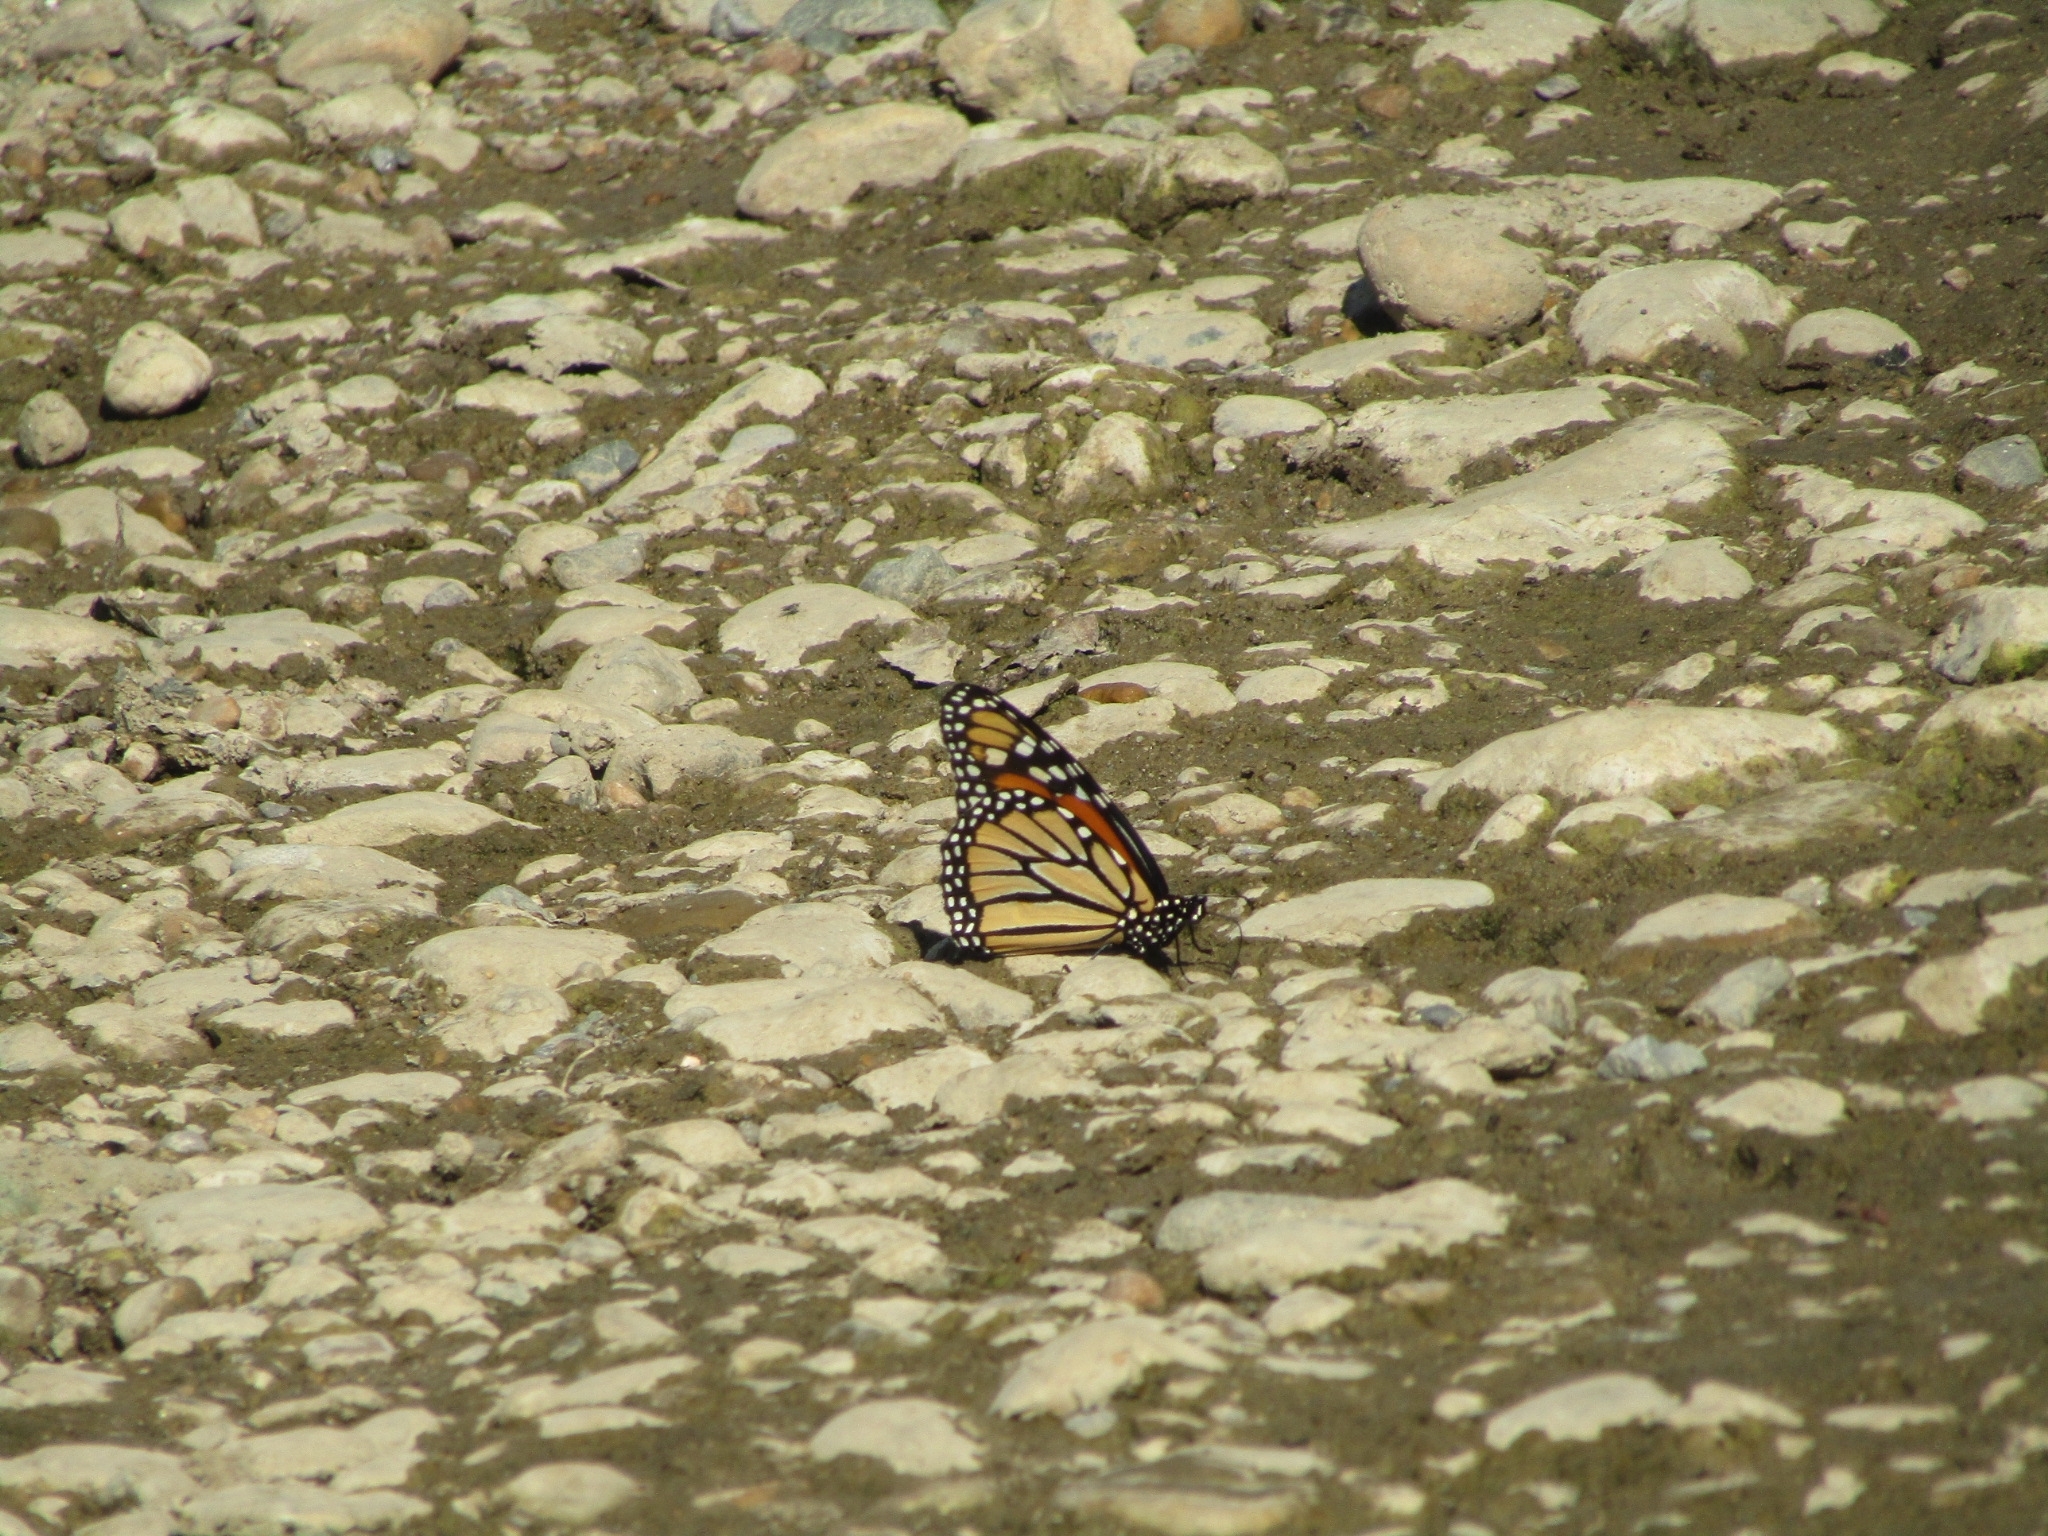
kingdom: Animalia
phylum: Arthropoda
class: Insecta
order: Lepidoptera
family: Nymphalidae
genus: Danaus
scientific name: Danaus plexippus
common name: Monarch
